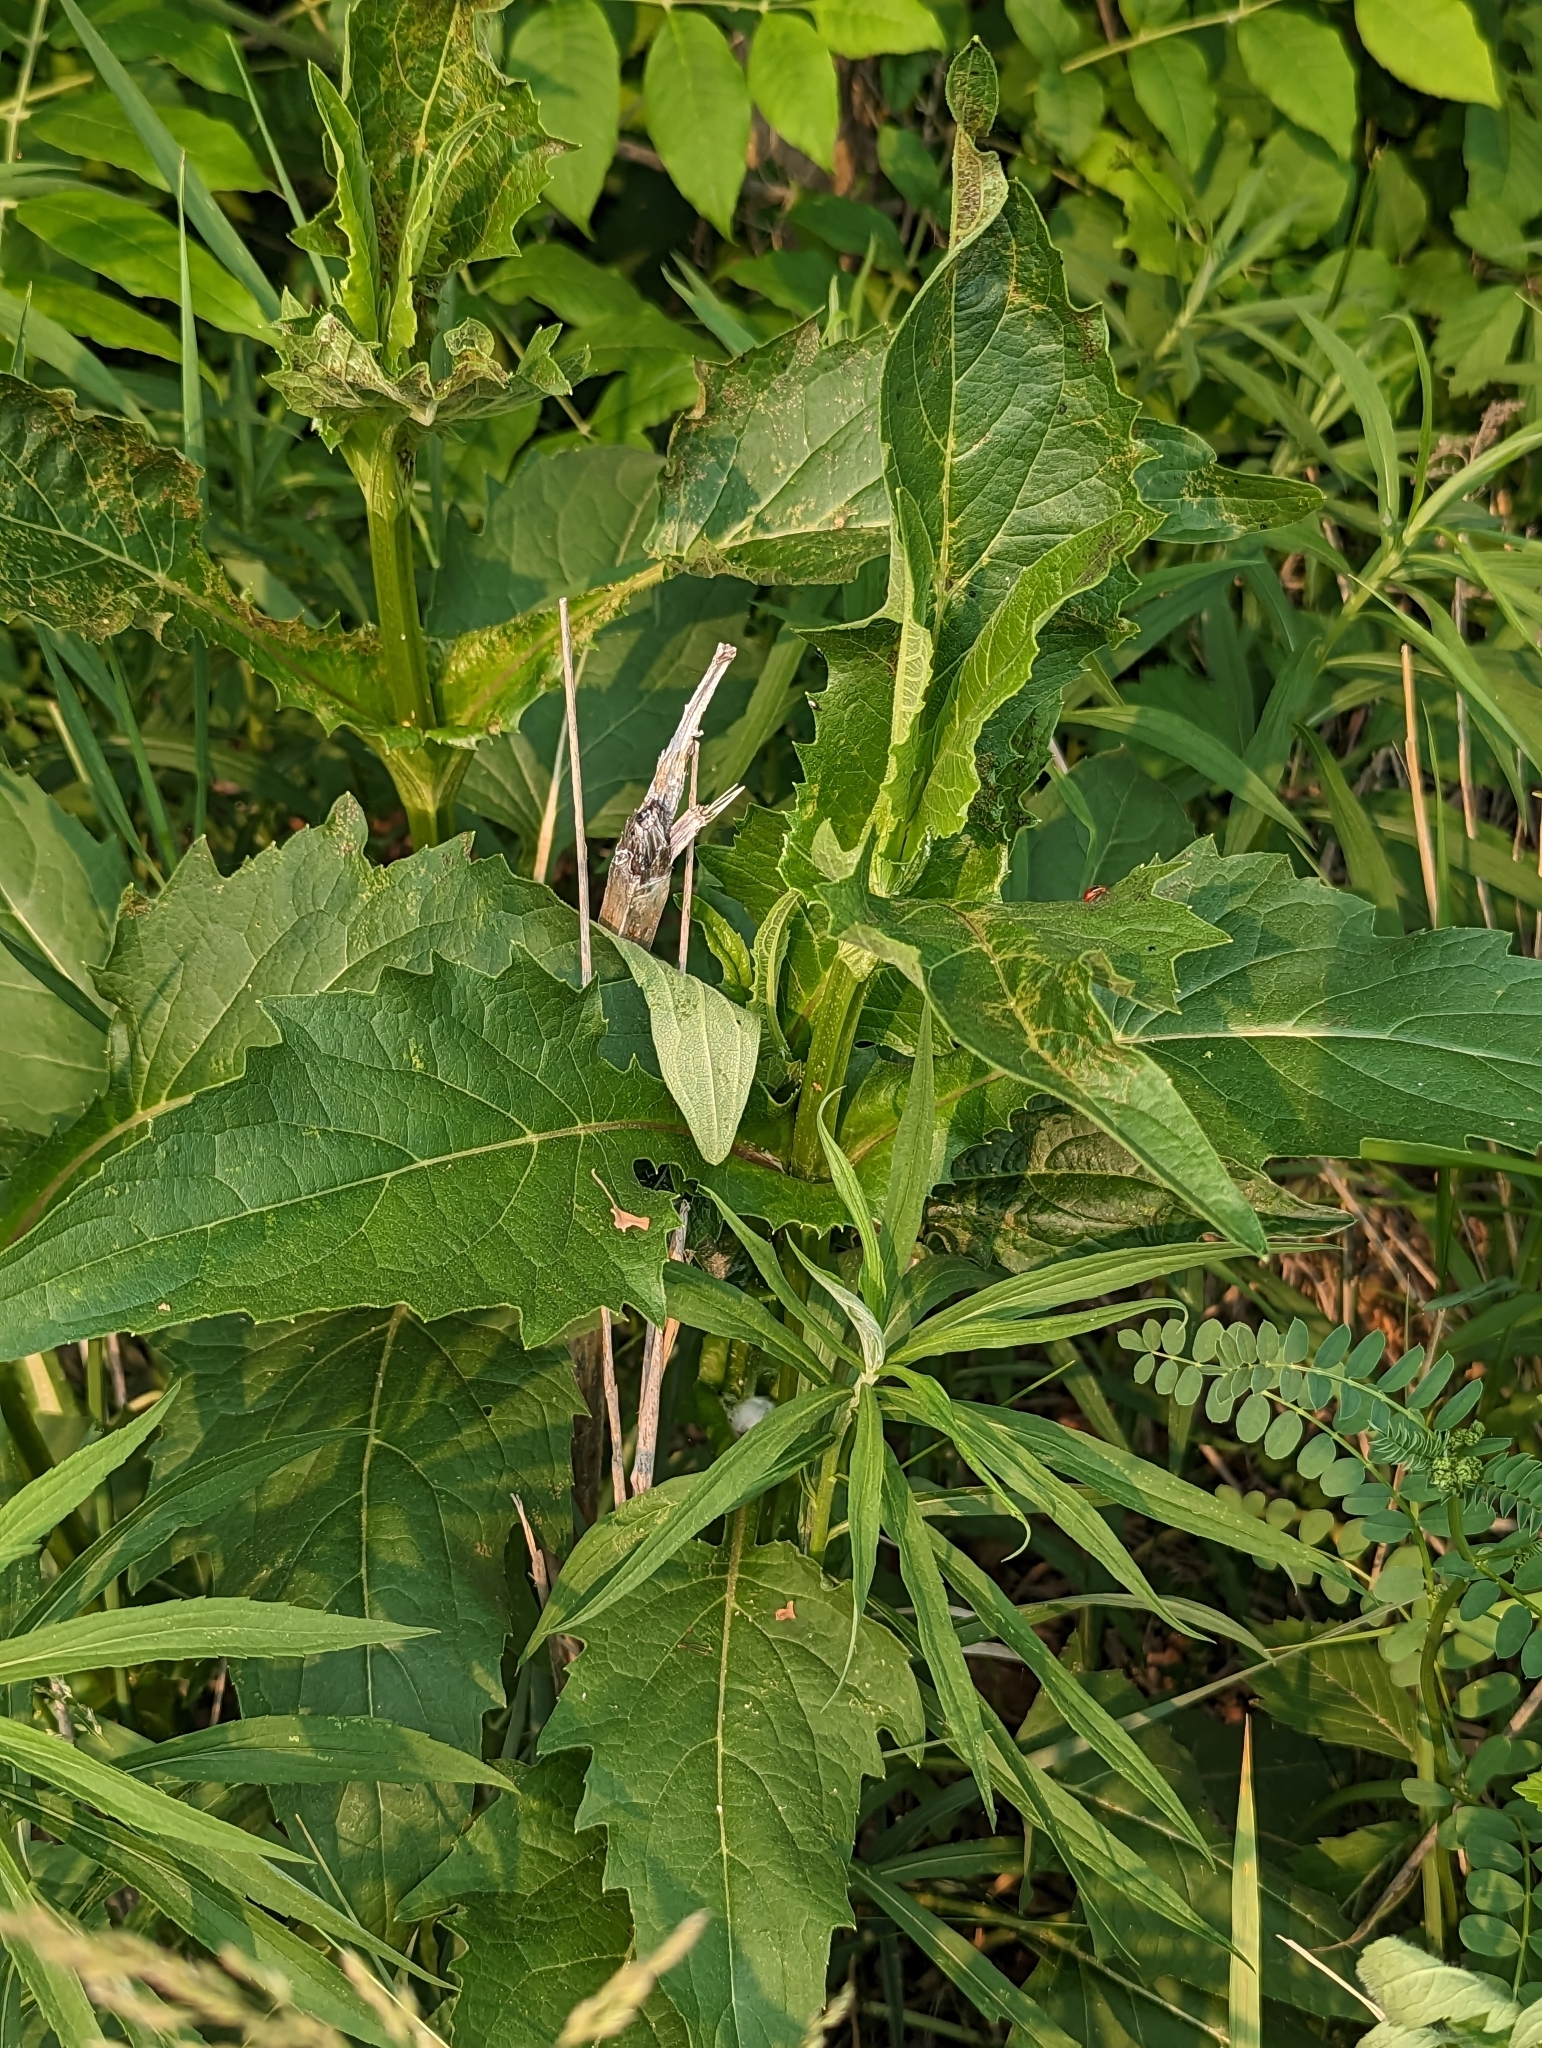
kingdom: Plantae
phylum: Tracheophyta
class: Magnoliopsida
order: Asterales
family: Asteraceae
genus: Silphium
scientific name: Silphium perfoliatum
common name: Cup-plant
